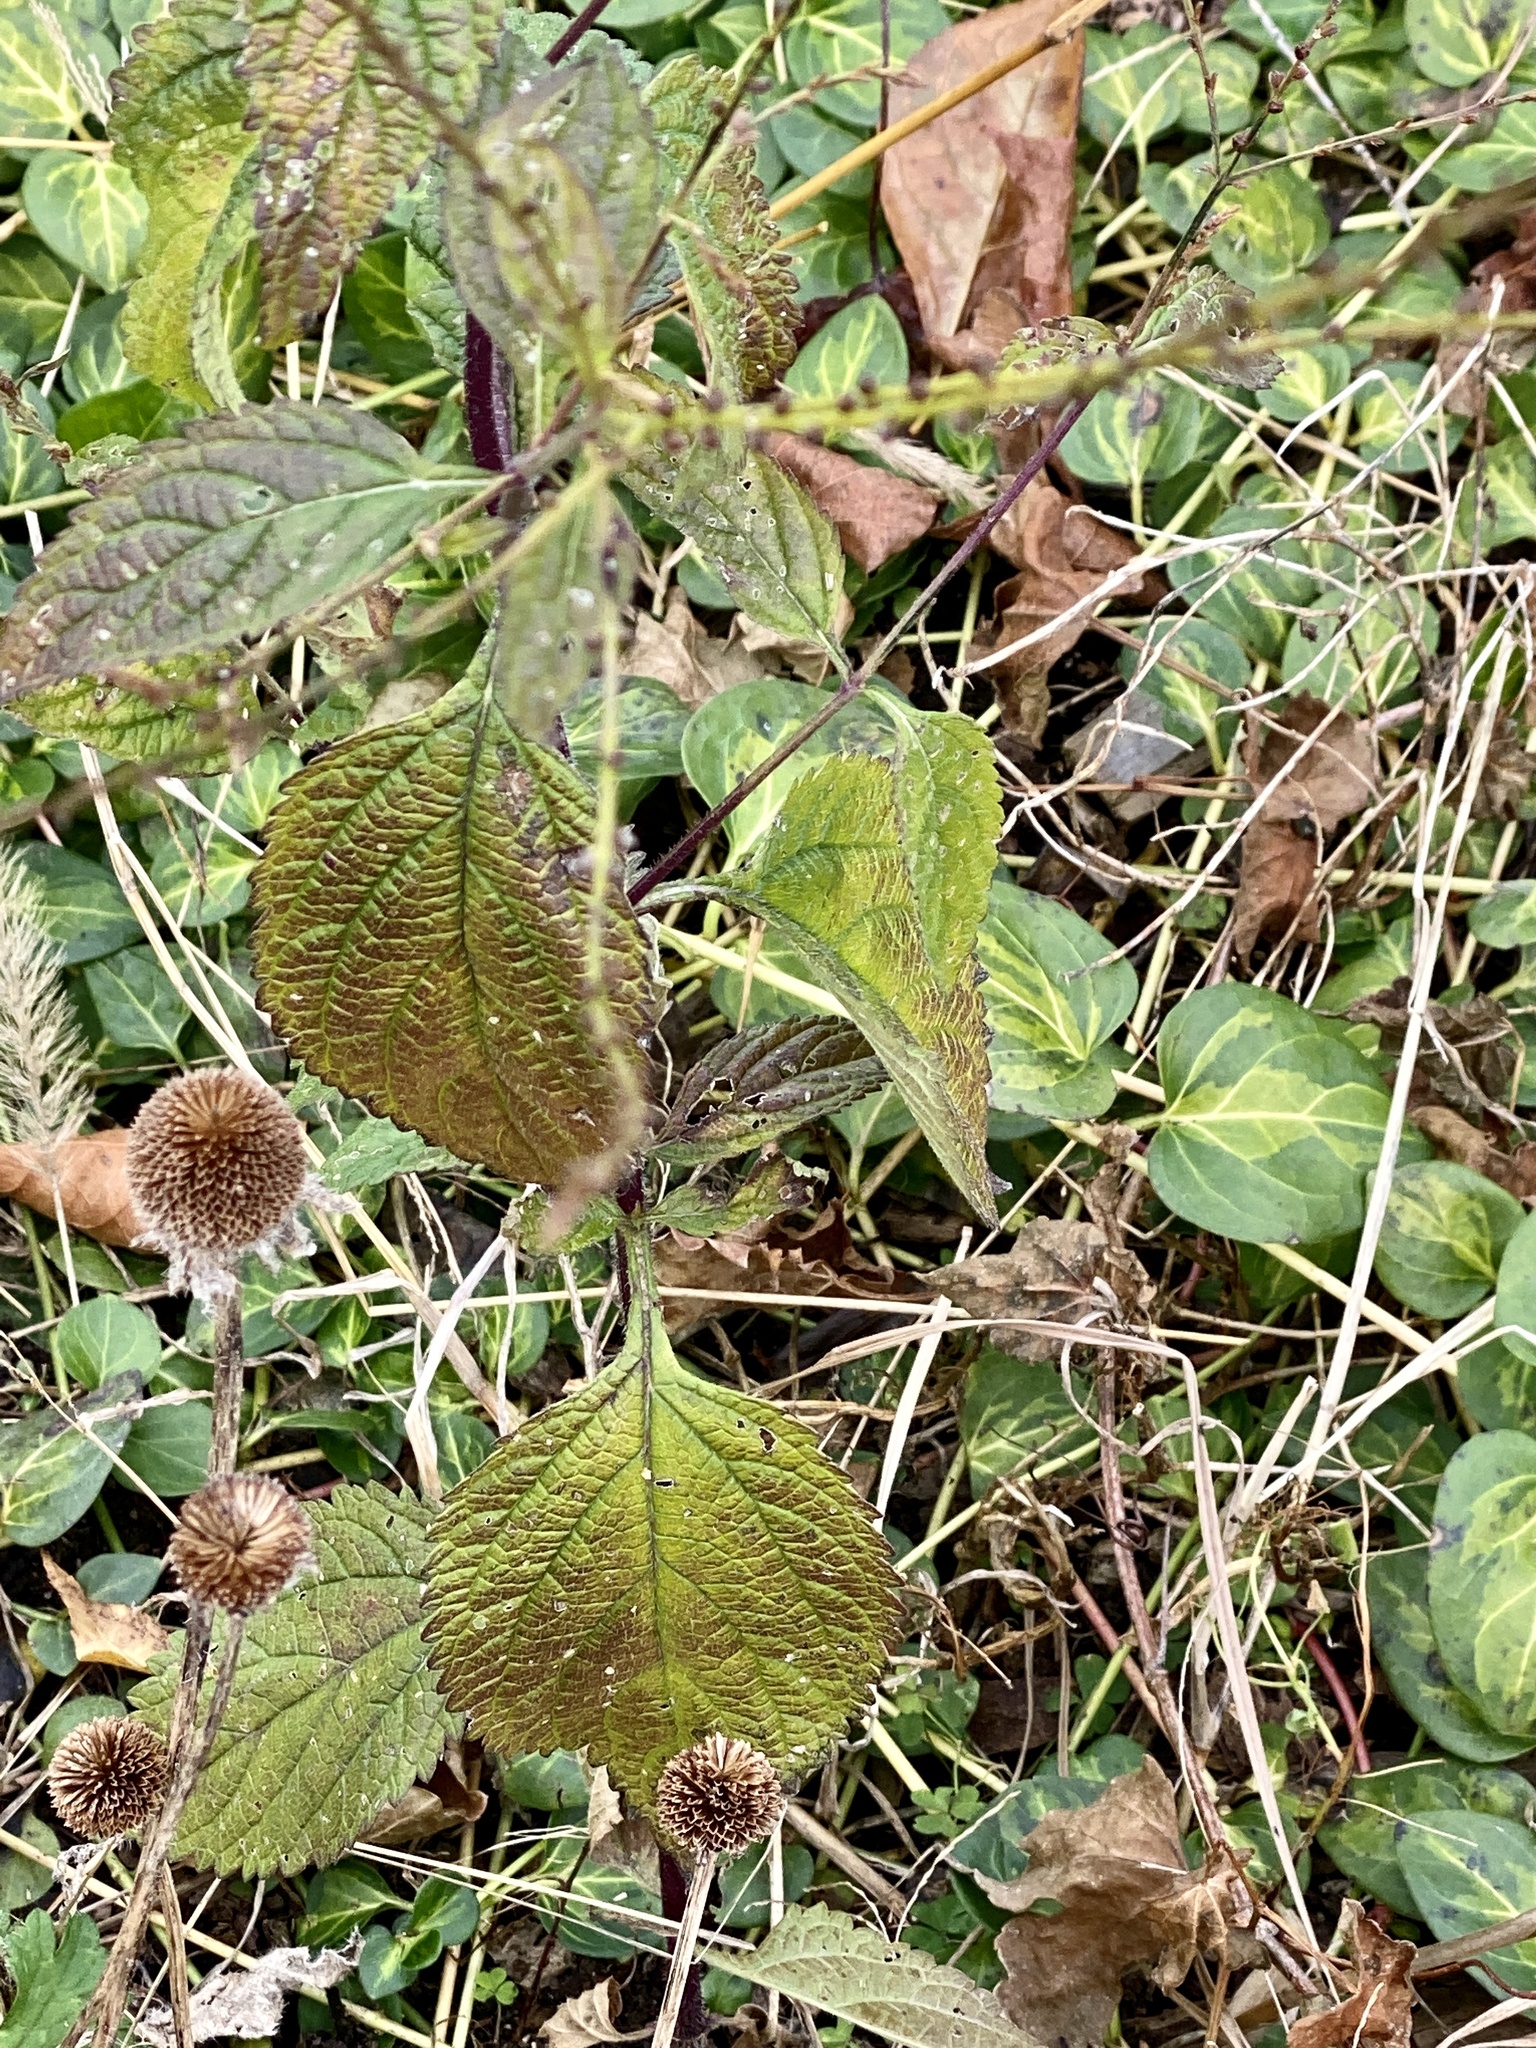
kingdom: Plantae
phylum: Tracheophyta
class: Magnoliopsida
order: Lamiales
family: Verbenaceae
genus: Verbena
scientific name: Verbena urticifolia
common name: Nettle-leaved vervain
